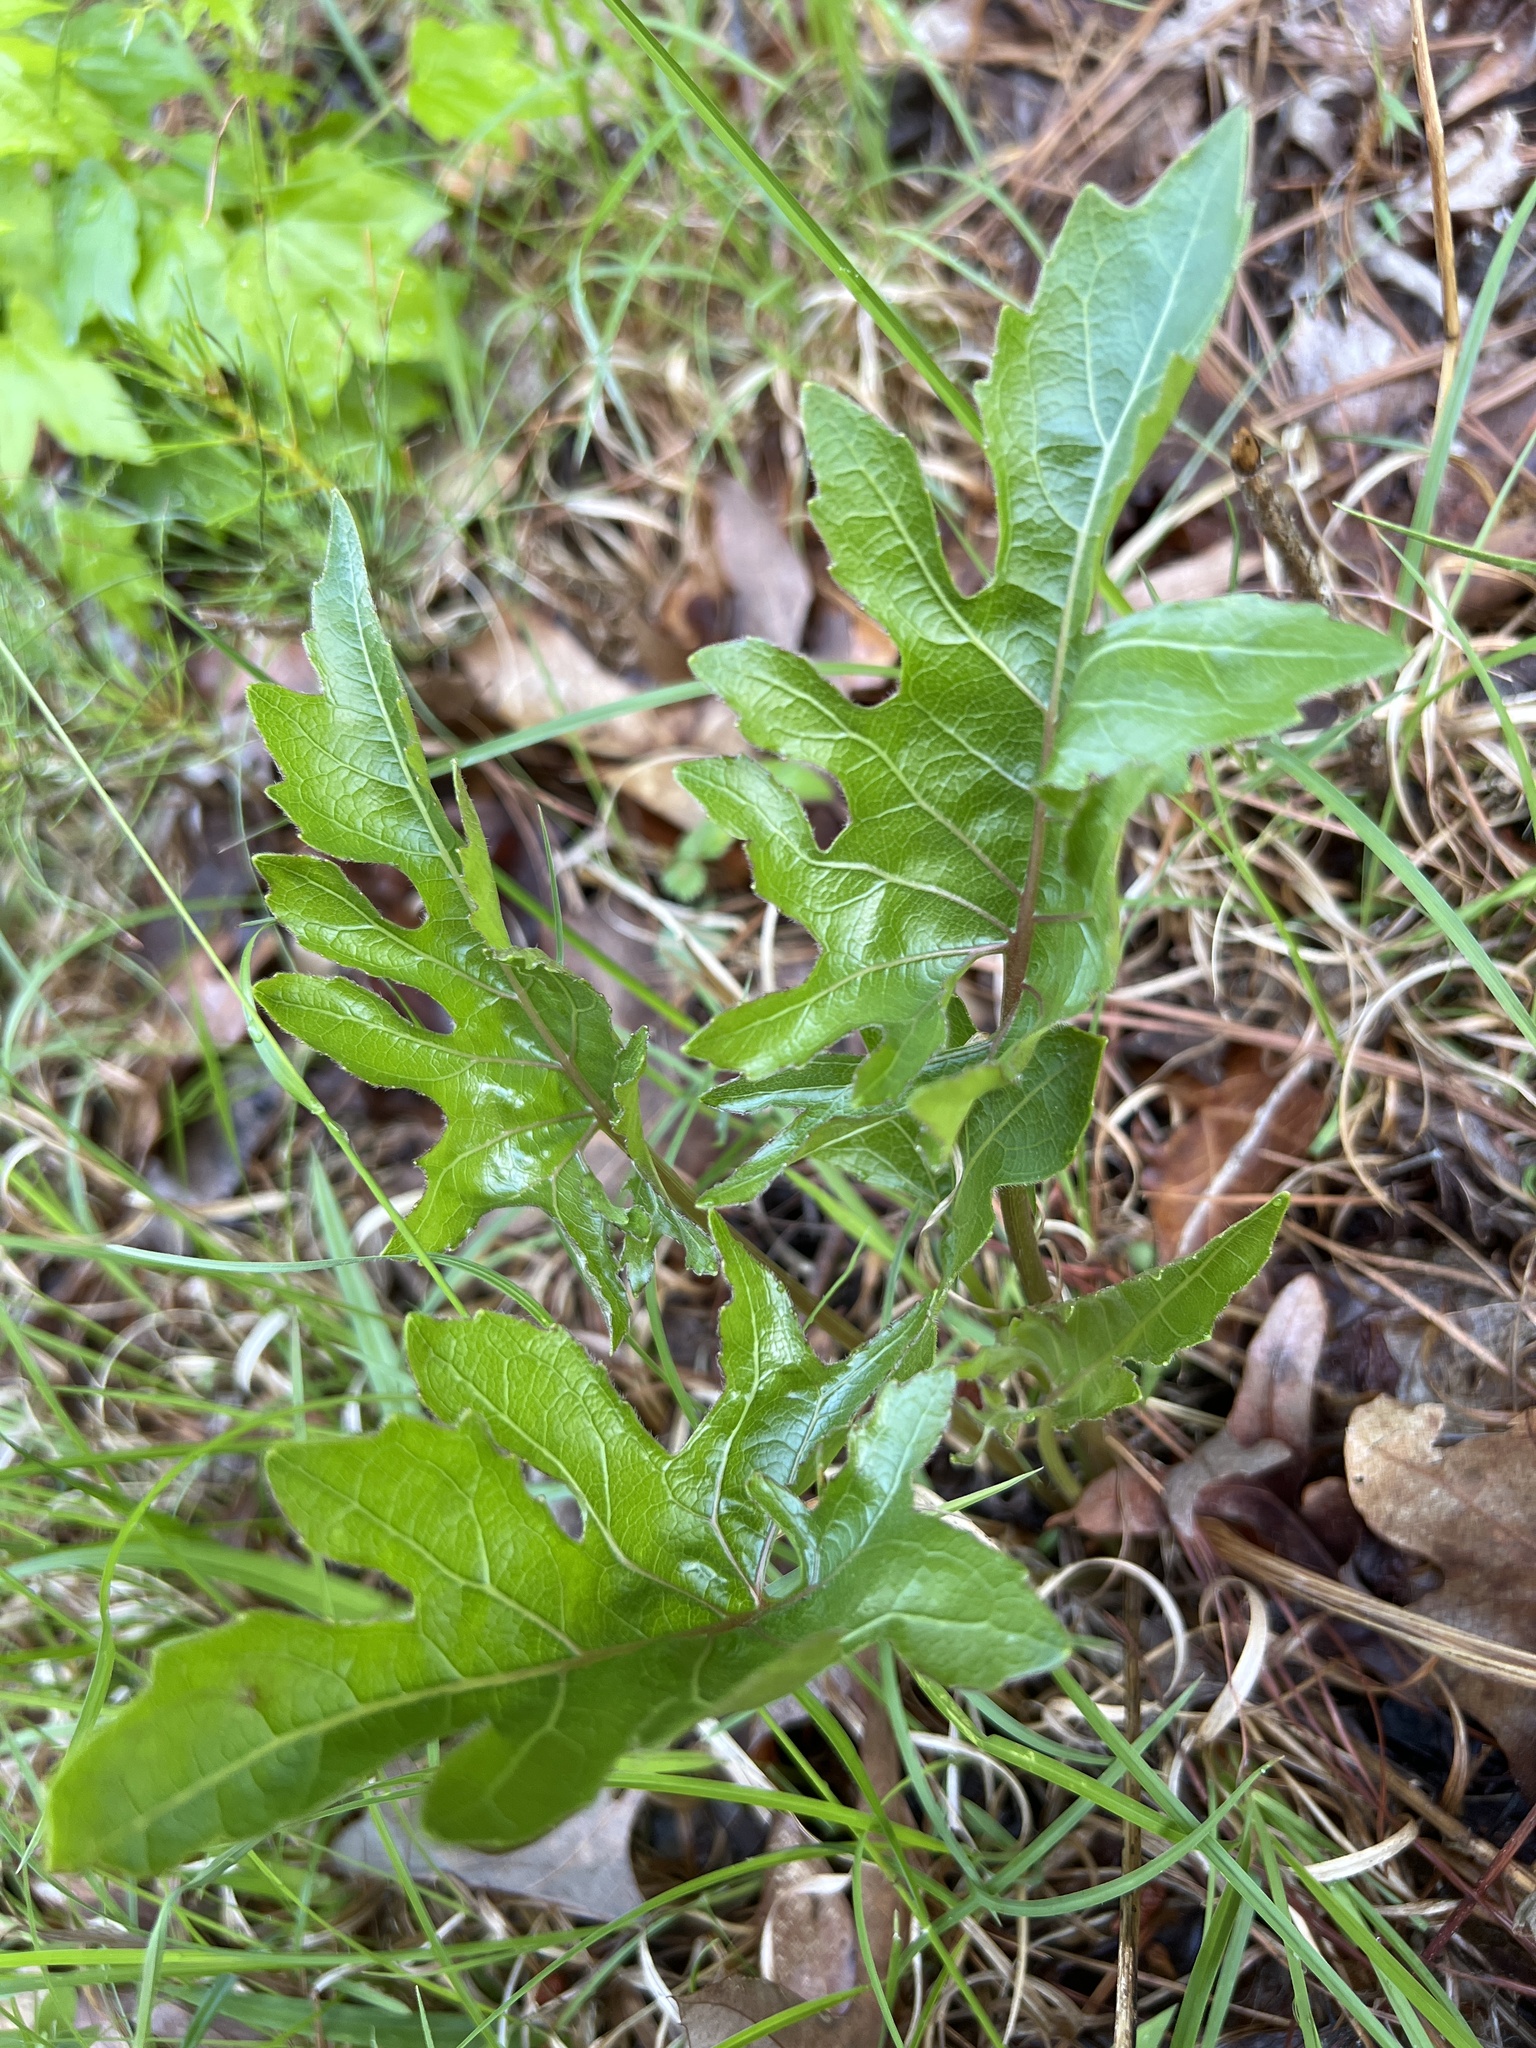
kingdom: Plantae
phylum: Tracheophyta
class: Magnoliopsida
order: Asterales
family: Asteraceae
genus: Silphium
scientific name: Silphium compositum
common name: Lesser basal-leaf rosinweed
